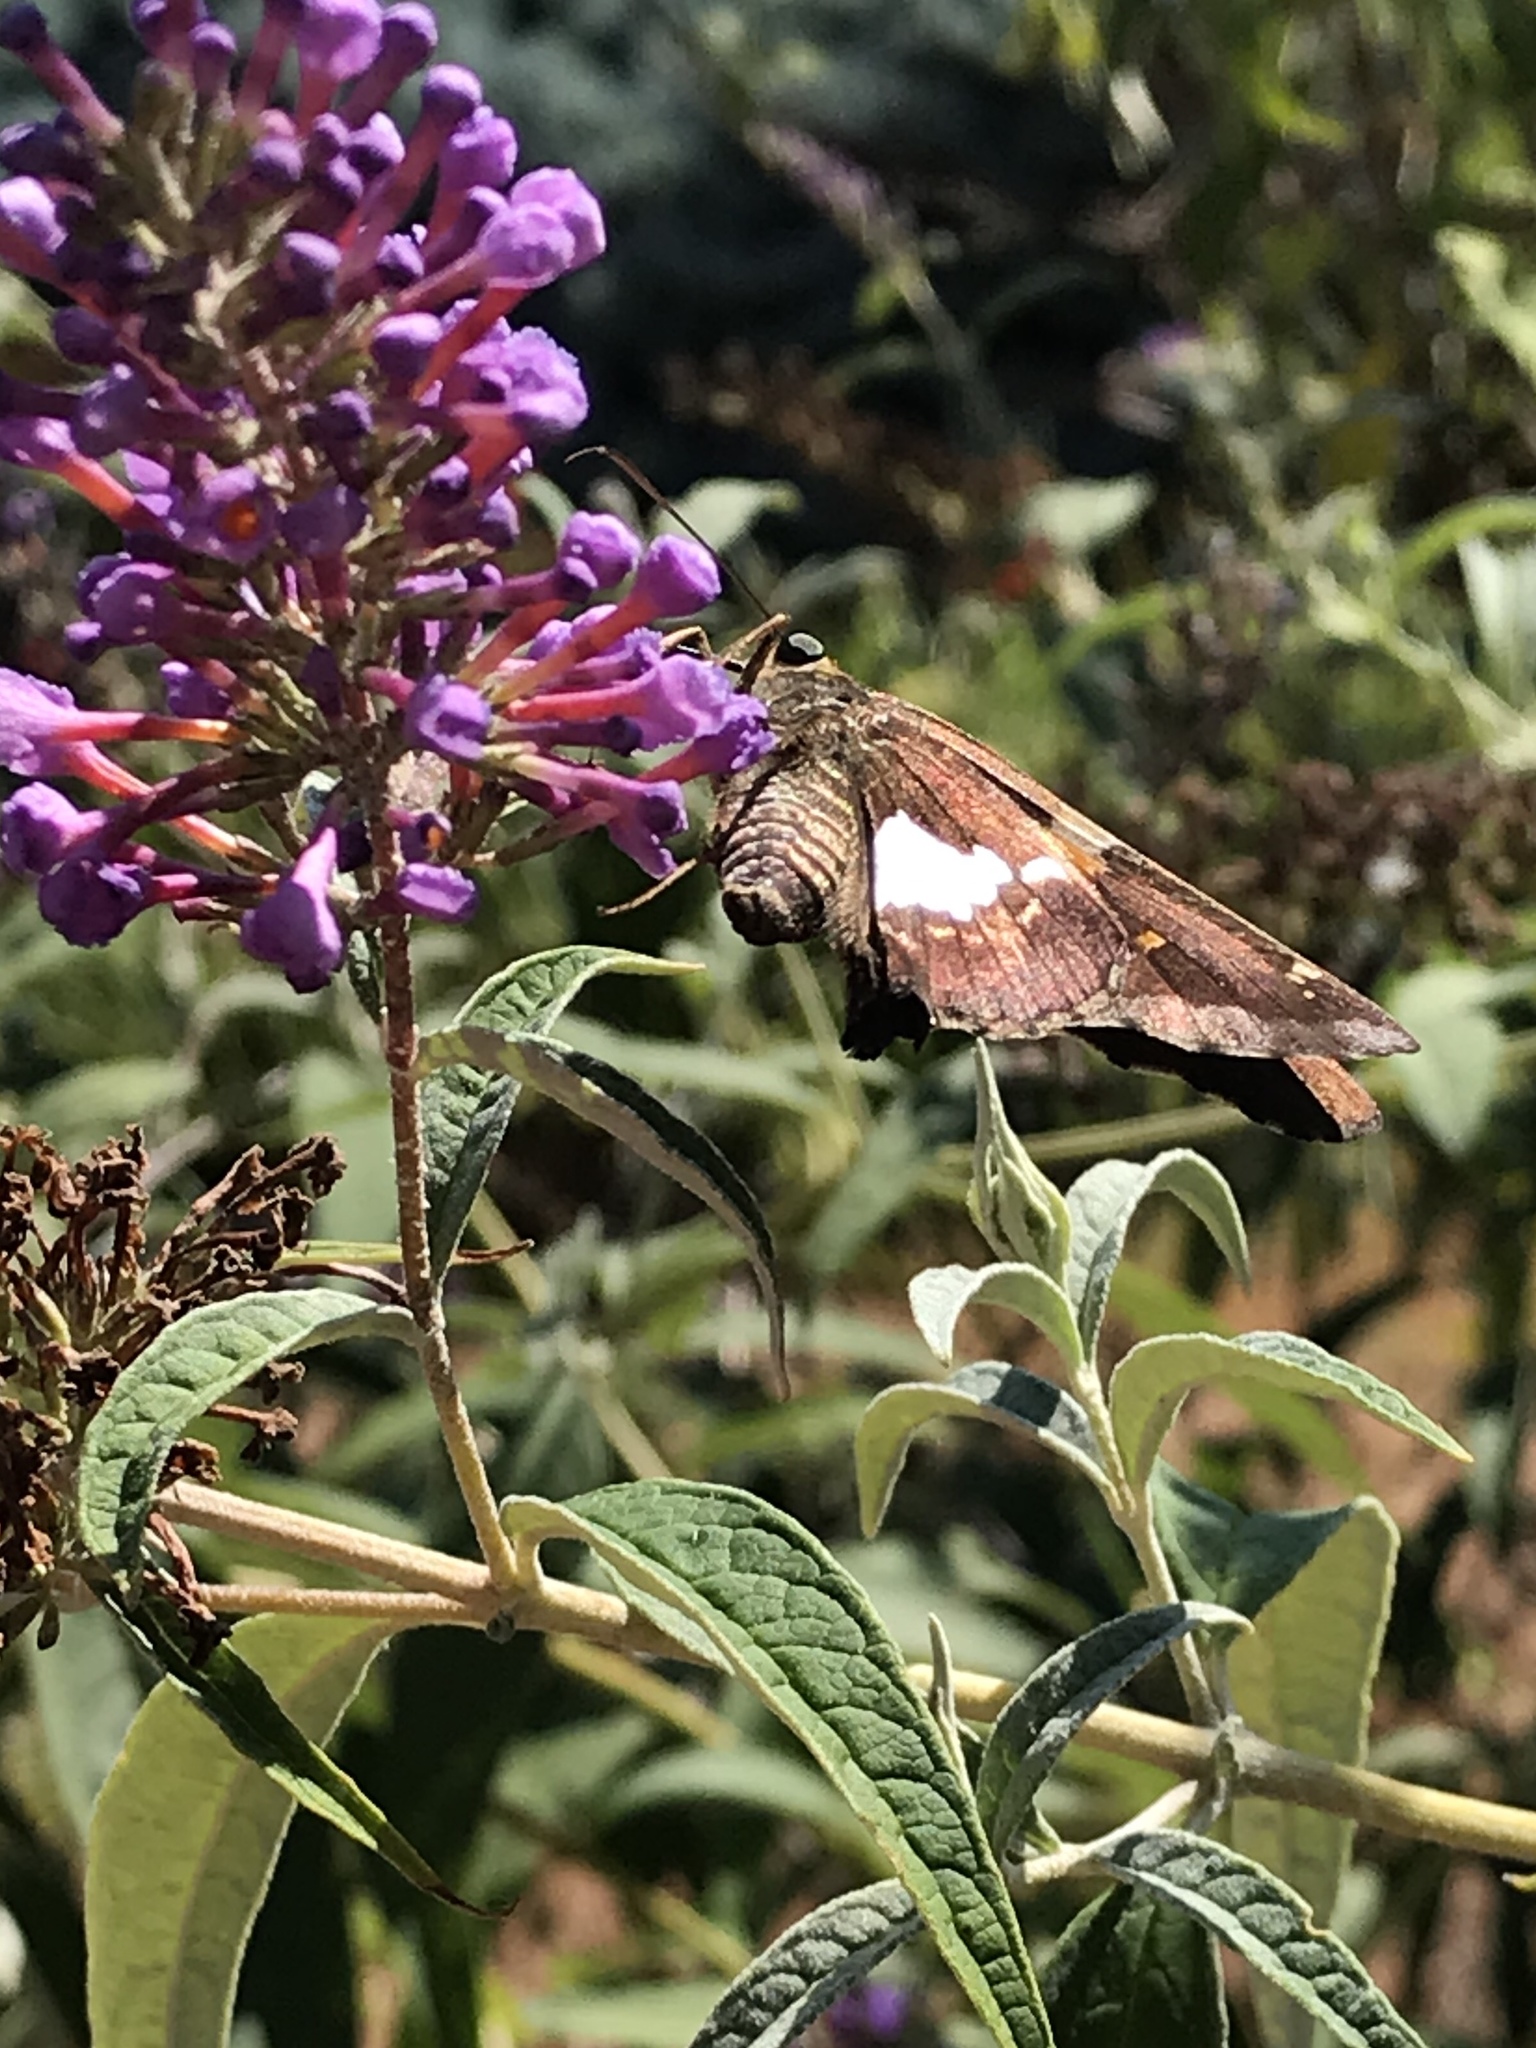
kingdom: Animalia
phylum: Arthropoda
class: Insecta
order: Lepidoptera
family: Hesperiidae
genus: Epargyreus
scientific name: Epargyreus clarus
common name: Silver-spotted skipper
